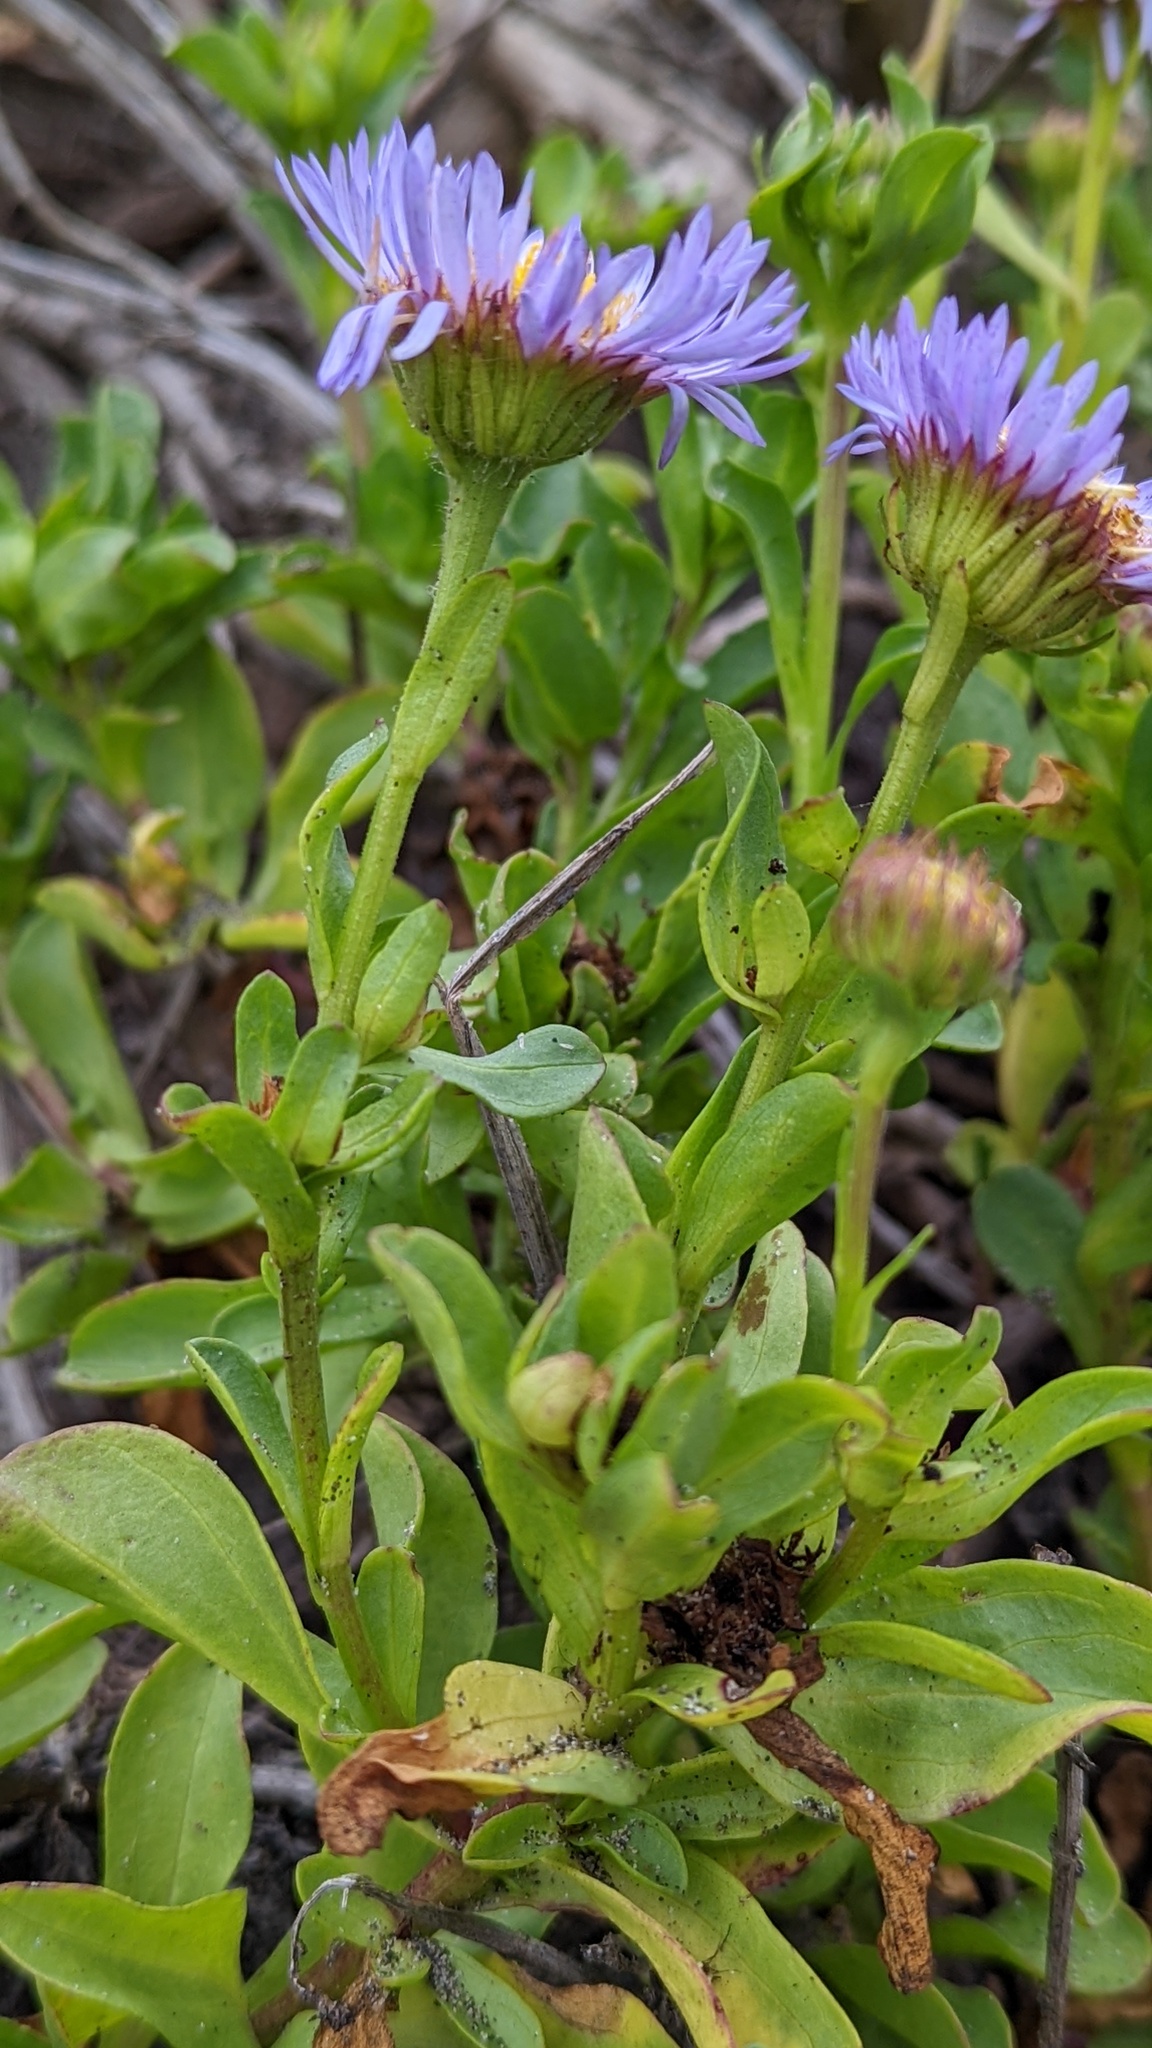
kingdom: Plantae
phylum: Tracheophyta
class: Magnoliopsida
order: Asterales
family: Asteraceae
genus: Erigeron
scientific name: Erigeron glaucus
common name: Seaside daisy
